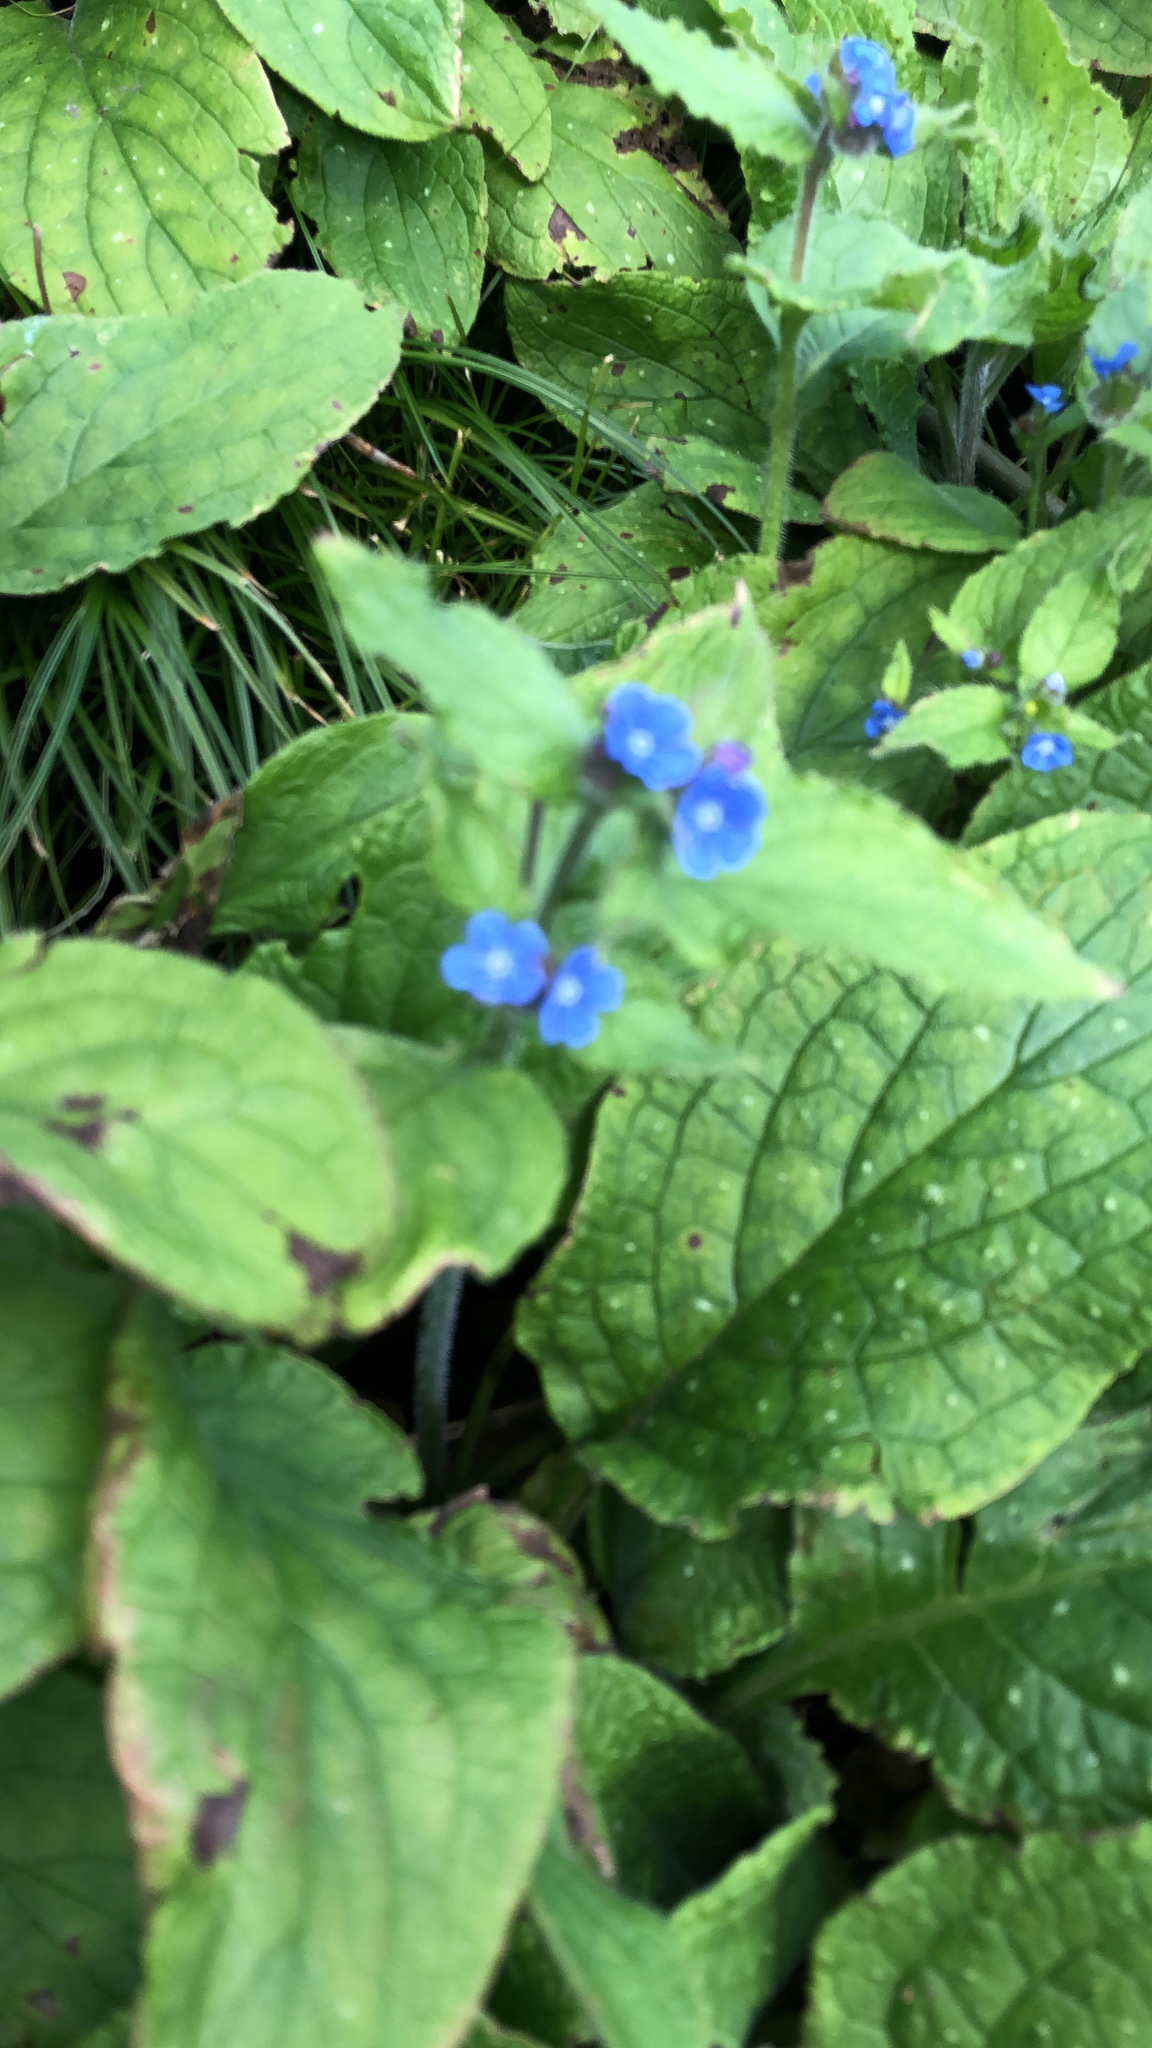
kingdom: Plantae
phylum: Tracheophyta
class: Magnoliopsida
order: Boraginales
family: Boraginaceae
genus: Pentaglottis
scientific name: Pentaglottis sempervirens
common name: Green alkanet
